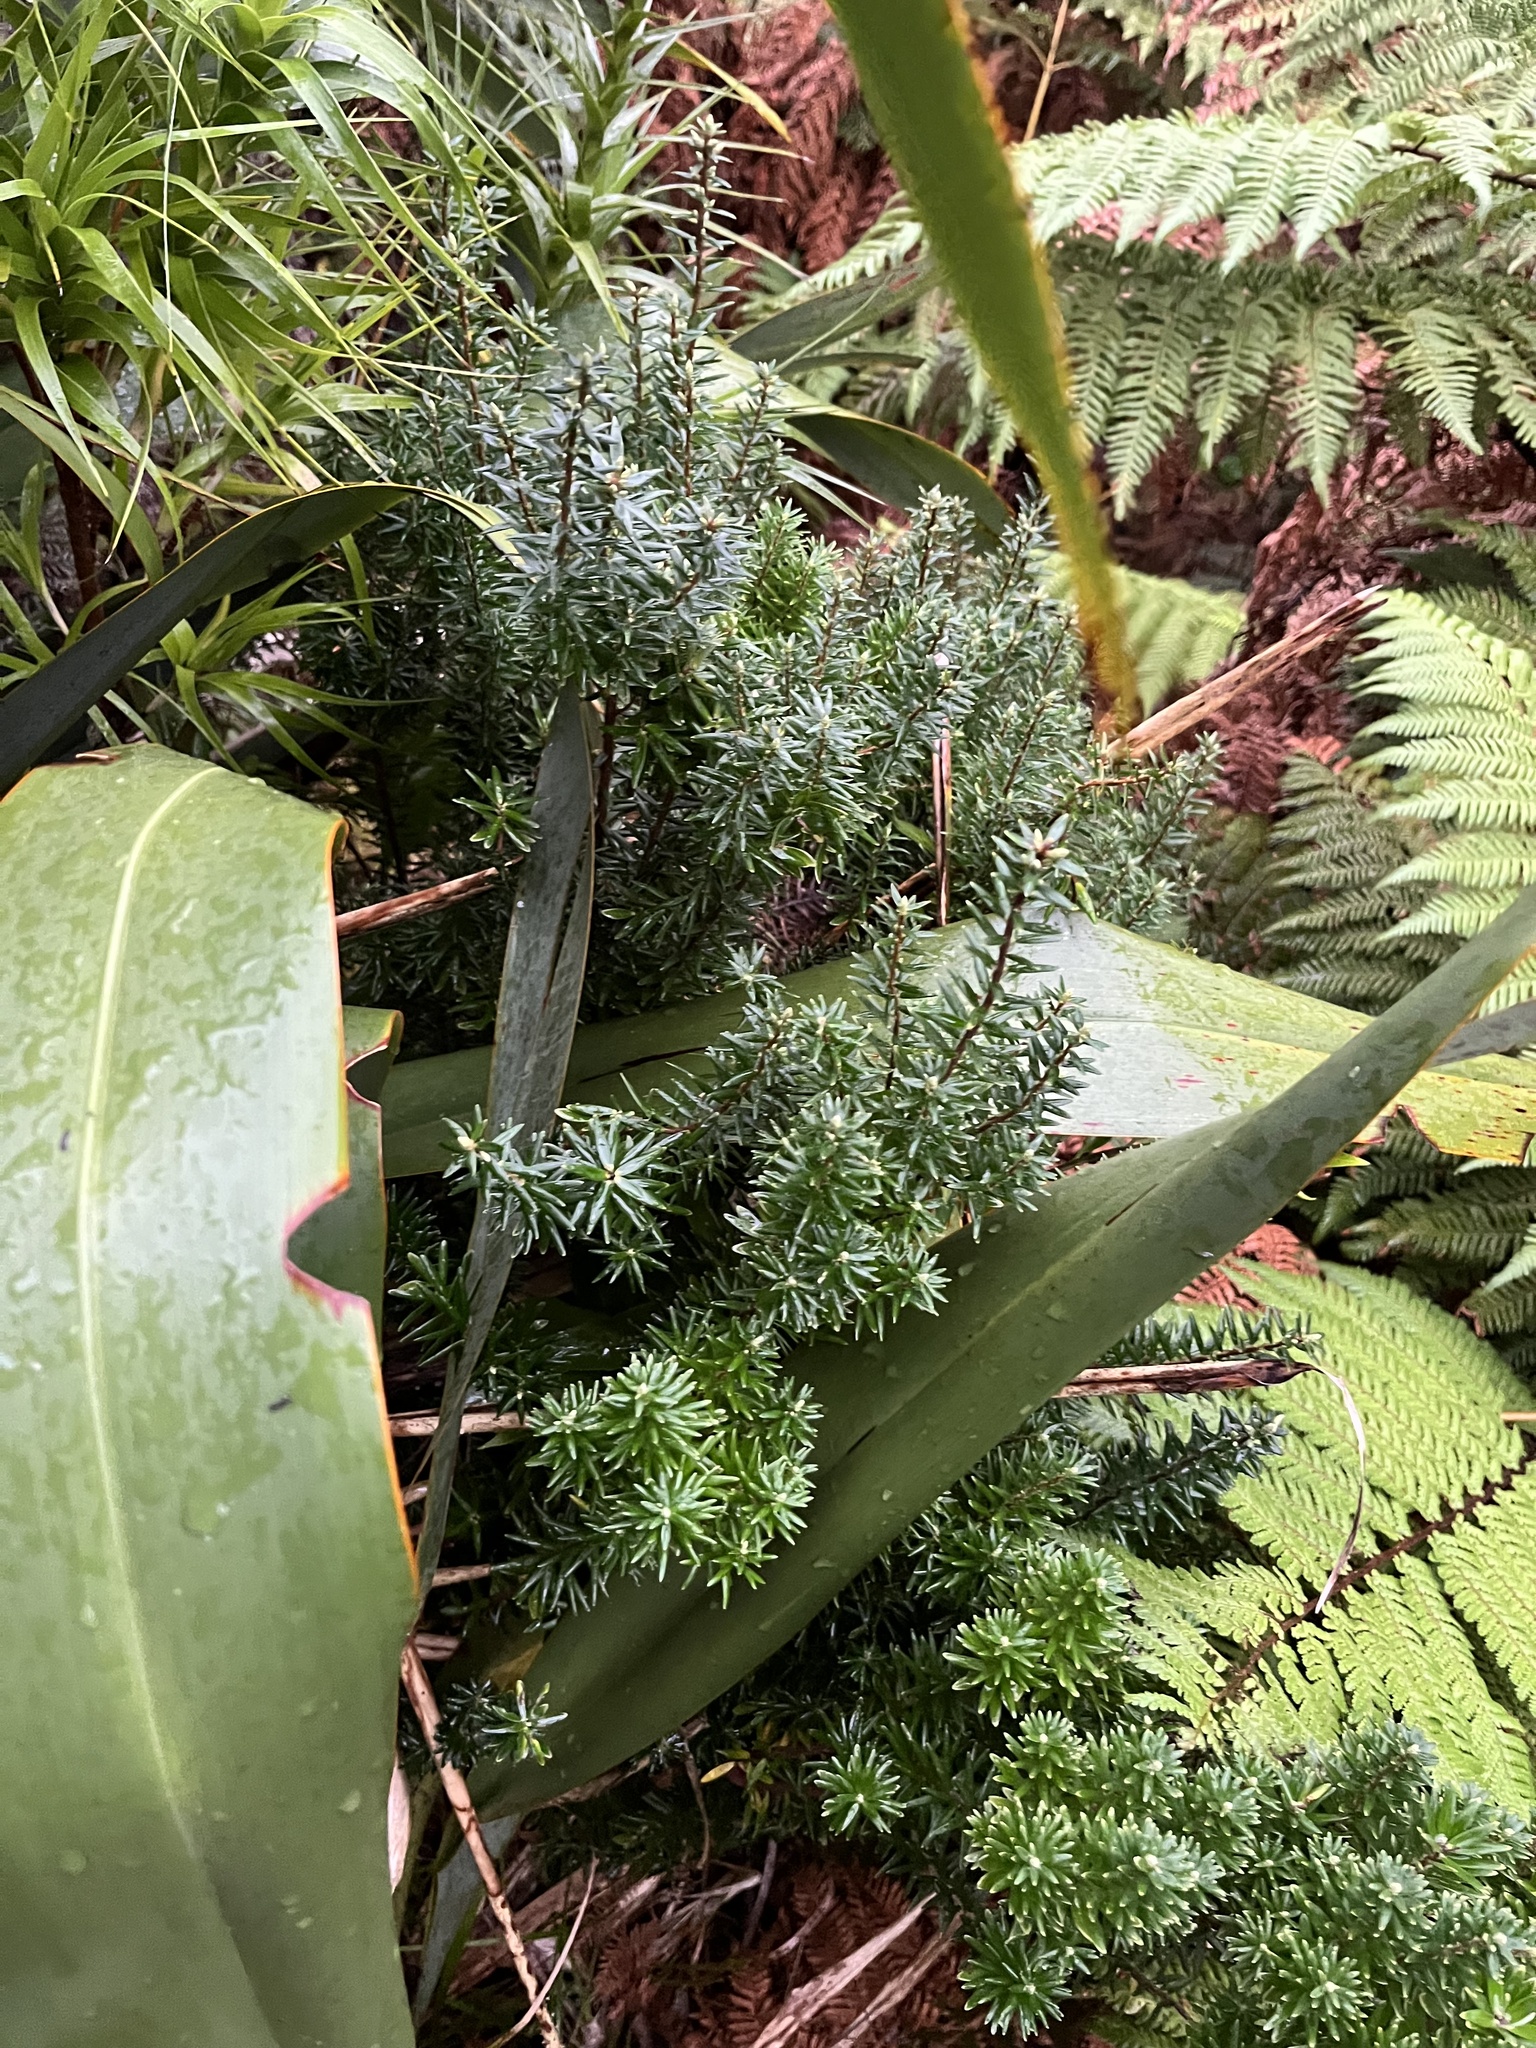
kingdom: Plantae
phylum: Tracheophyta
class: Magnoliopsida
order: Ericales
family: Ericaceae
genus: Leptecophylla
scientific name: Leptecophylla robusta
